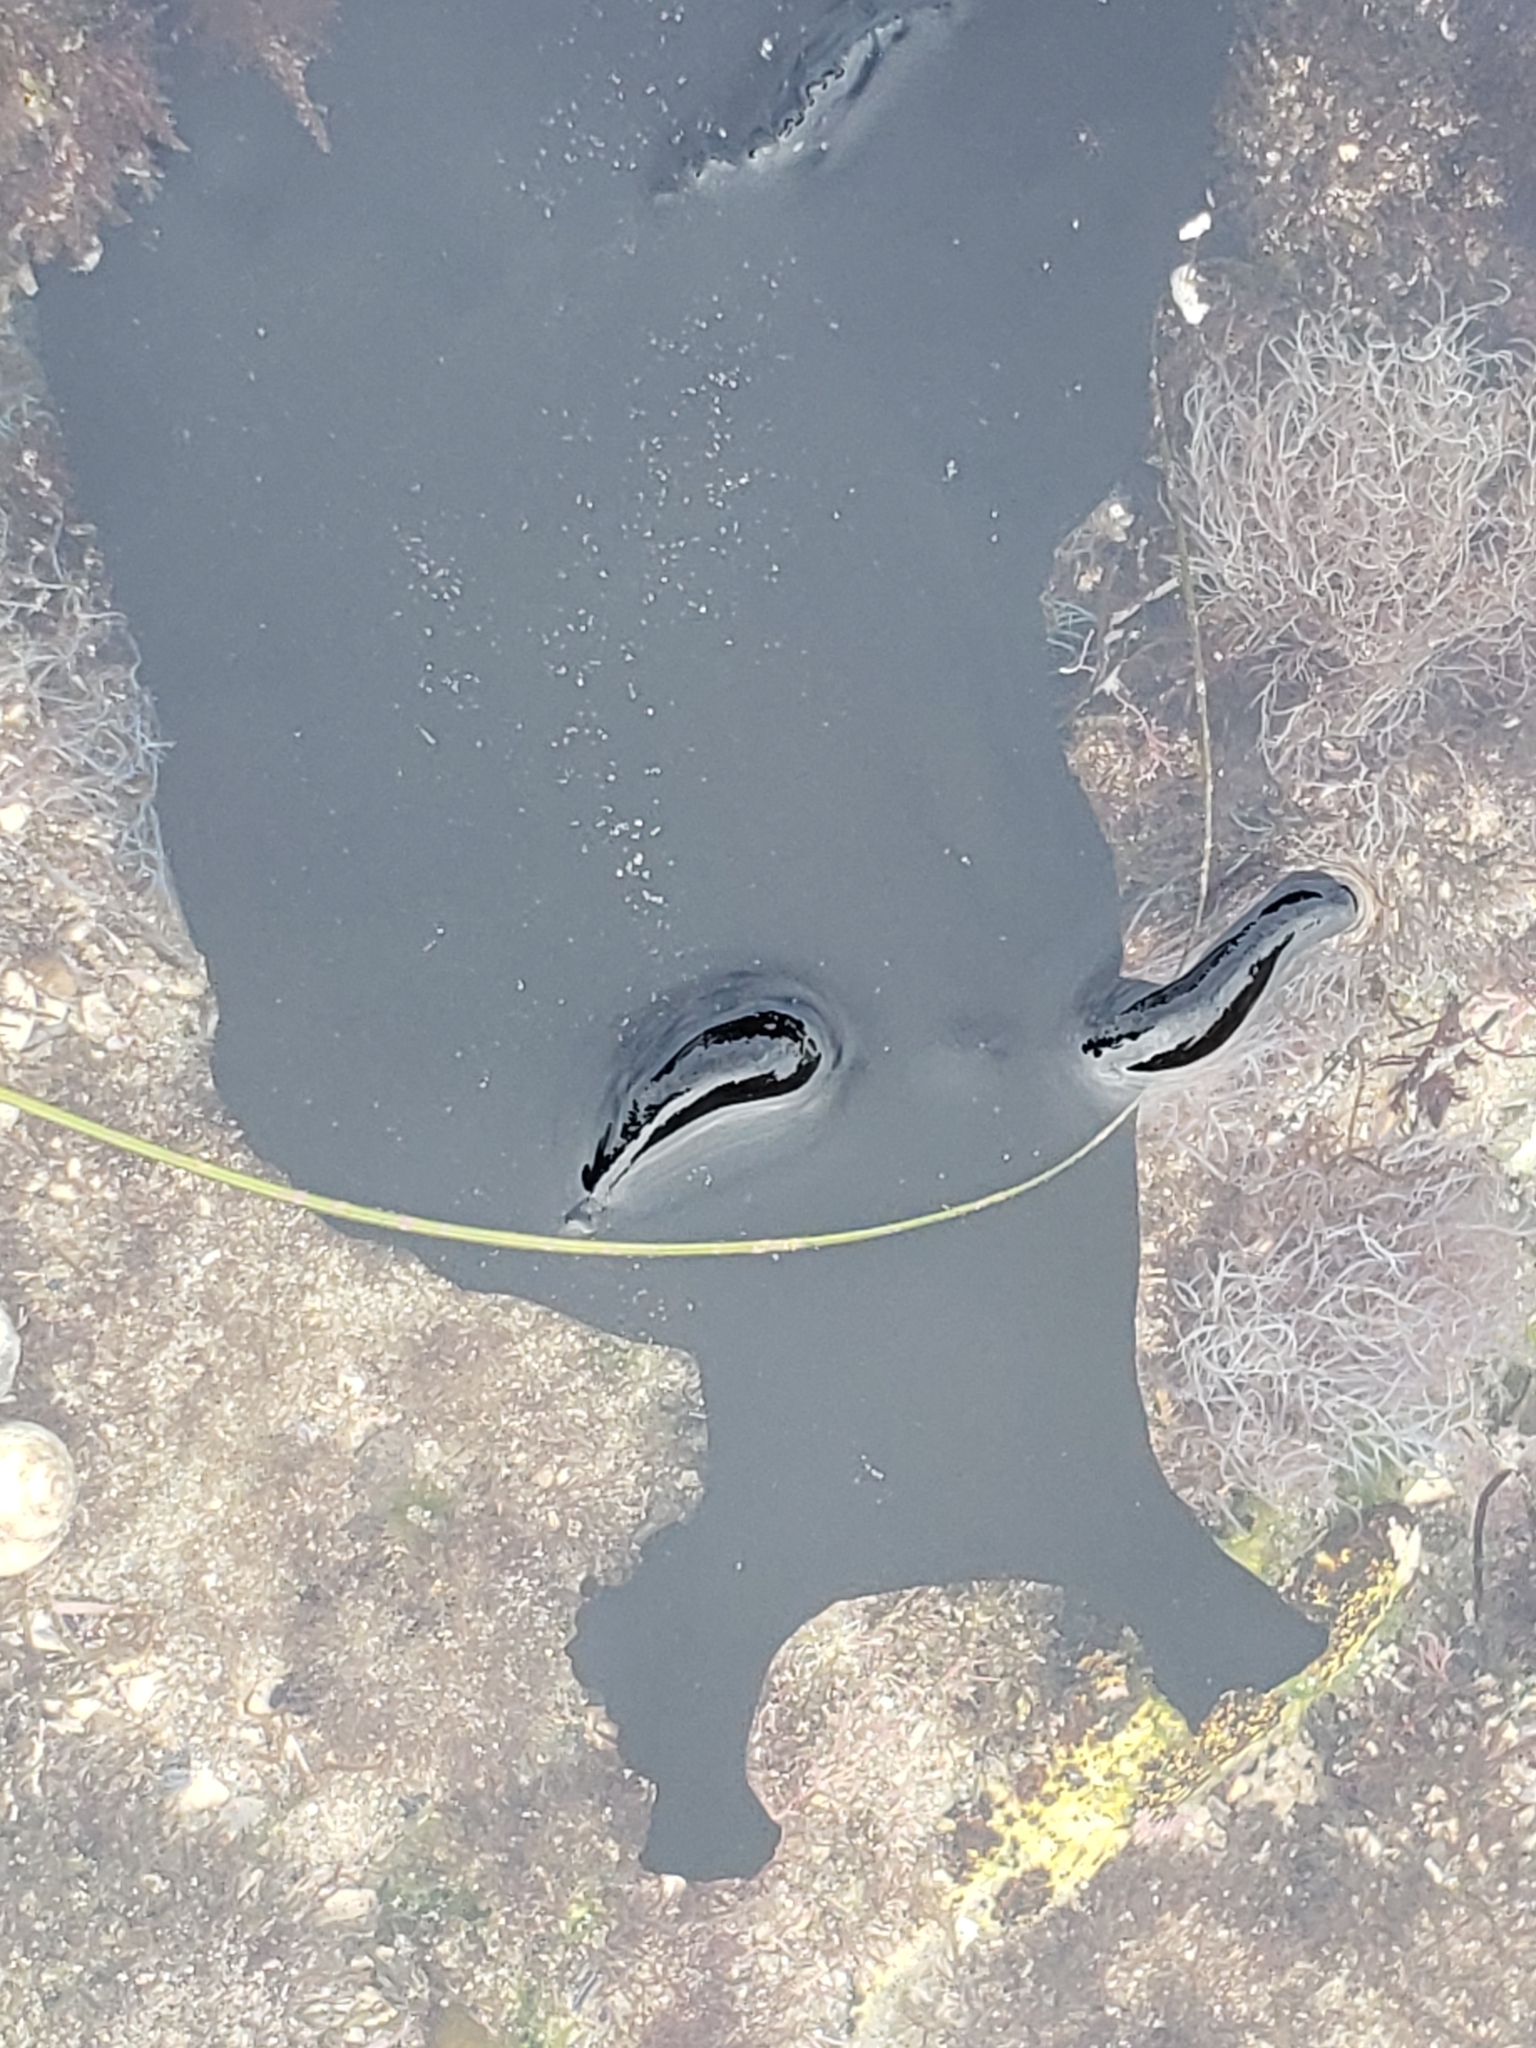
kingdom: Animalia
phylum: Mollusca
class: Gastropoda
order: Aplysiida
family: Aplysiidae
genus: Aplysia
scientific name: Aplysia vaccaria
